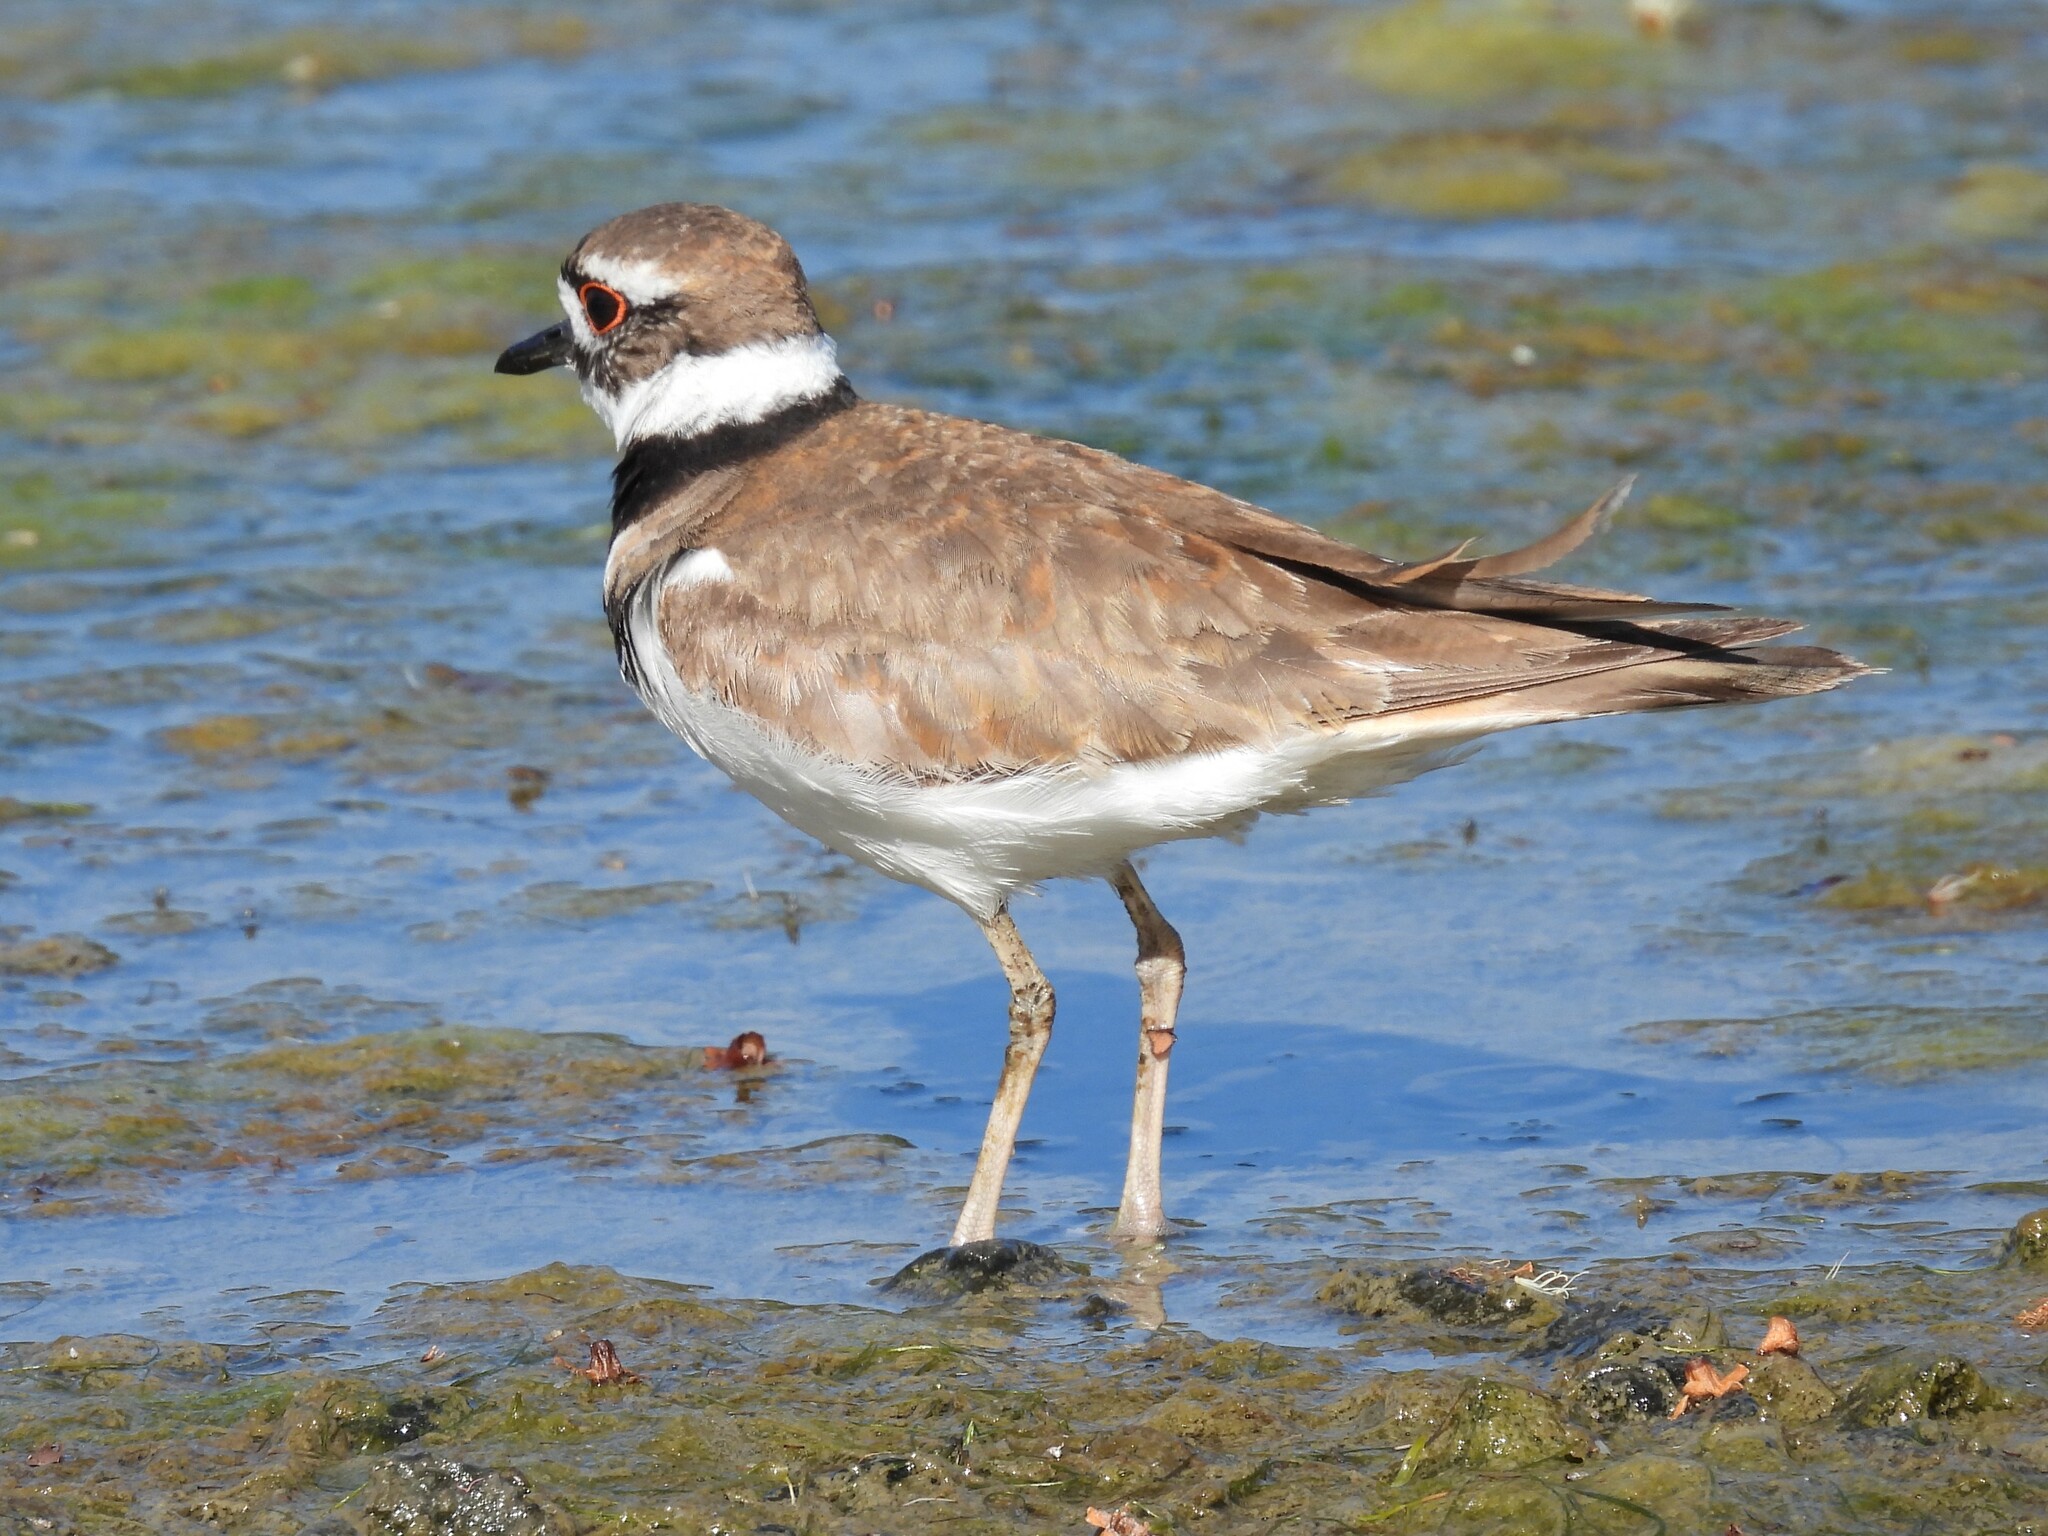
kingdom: Animalia
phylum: Chordata
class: Aves
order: Charadriiformes
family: Charadriidae
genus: Charadrius
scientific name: Charadrius vociferus
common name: Killdeer
